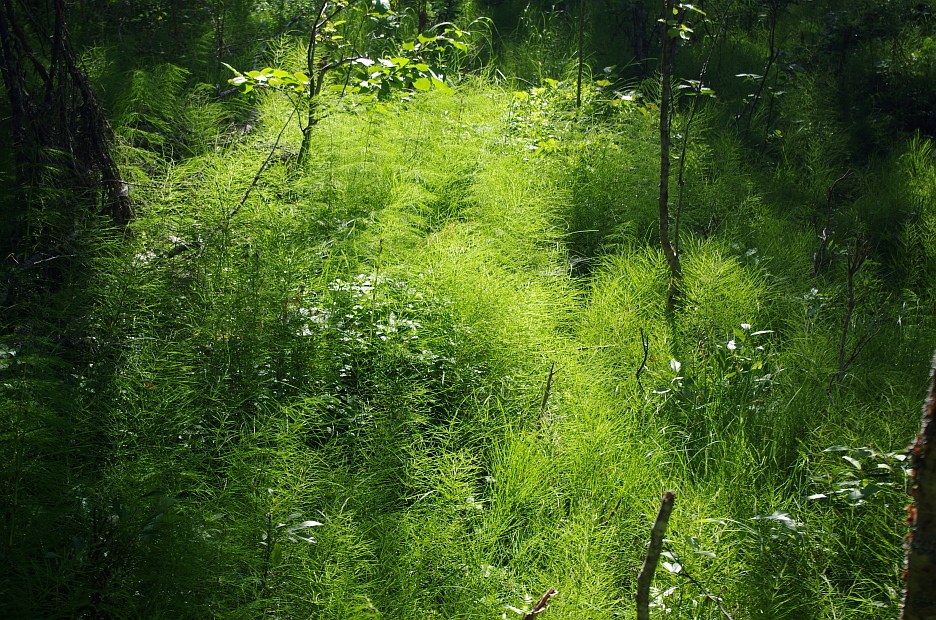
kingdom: Plantae
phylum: Tracheophyta
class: Polypodiopsida
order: Equisetales
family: Equisetaceae
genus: Equisetum
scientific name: Equisetum sylvaticum
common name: Wood horsetail
